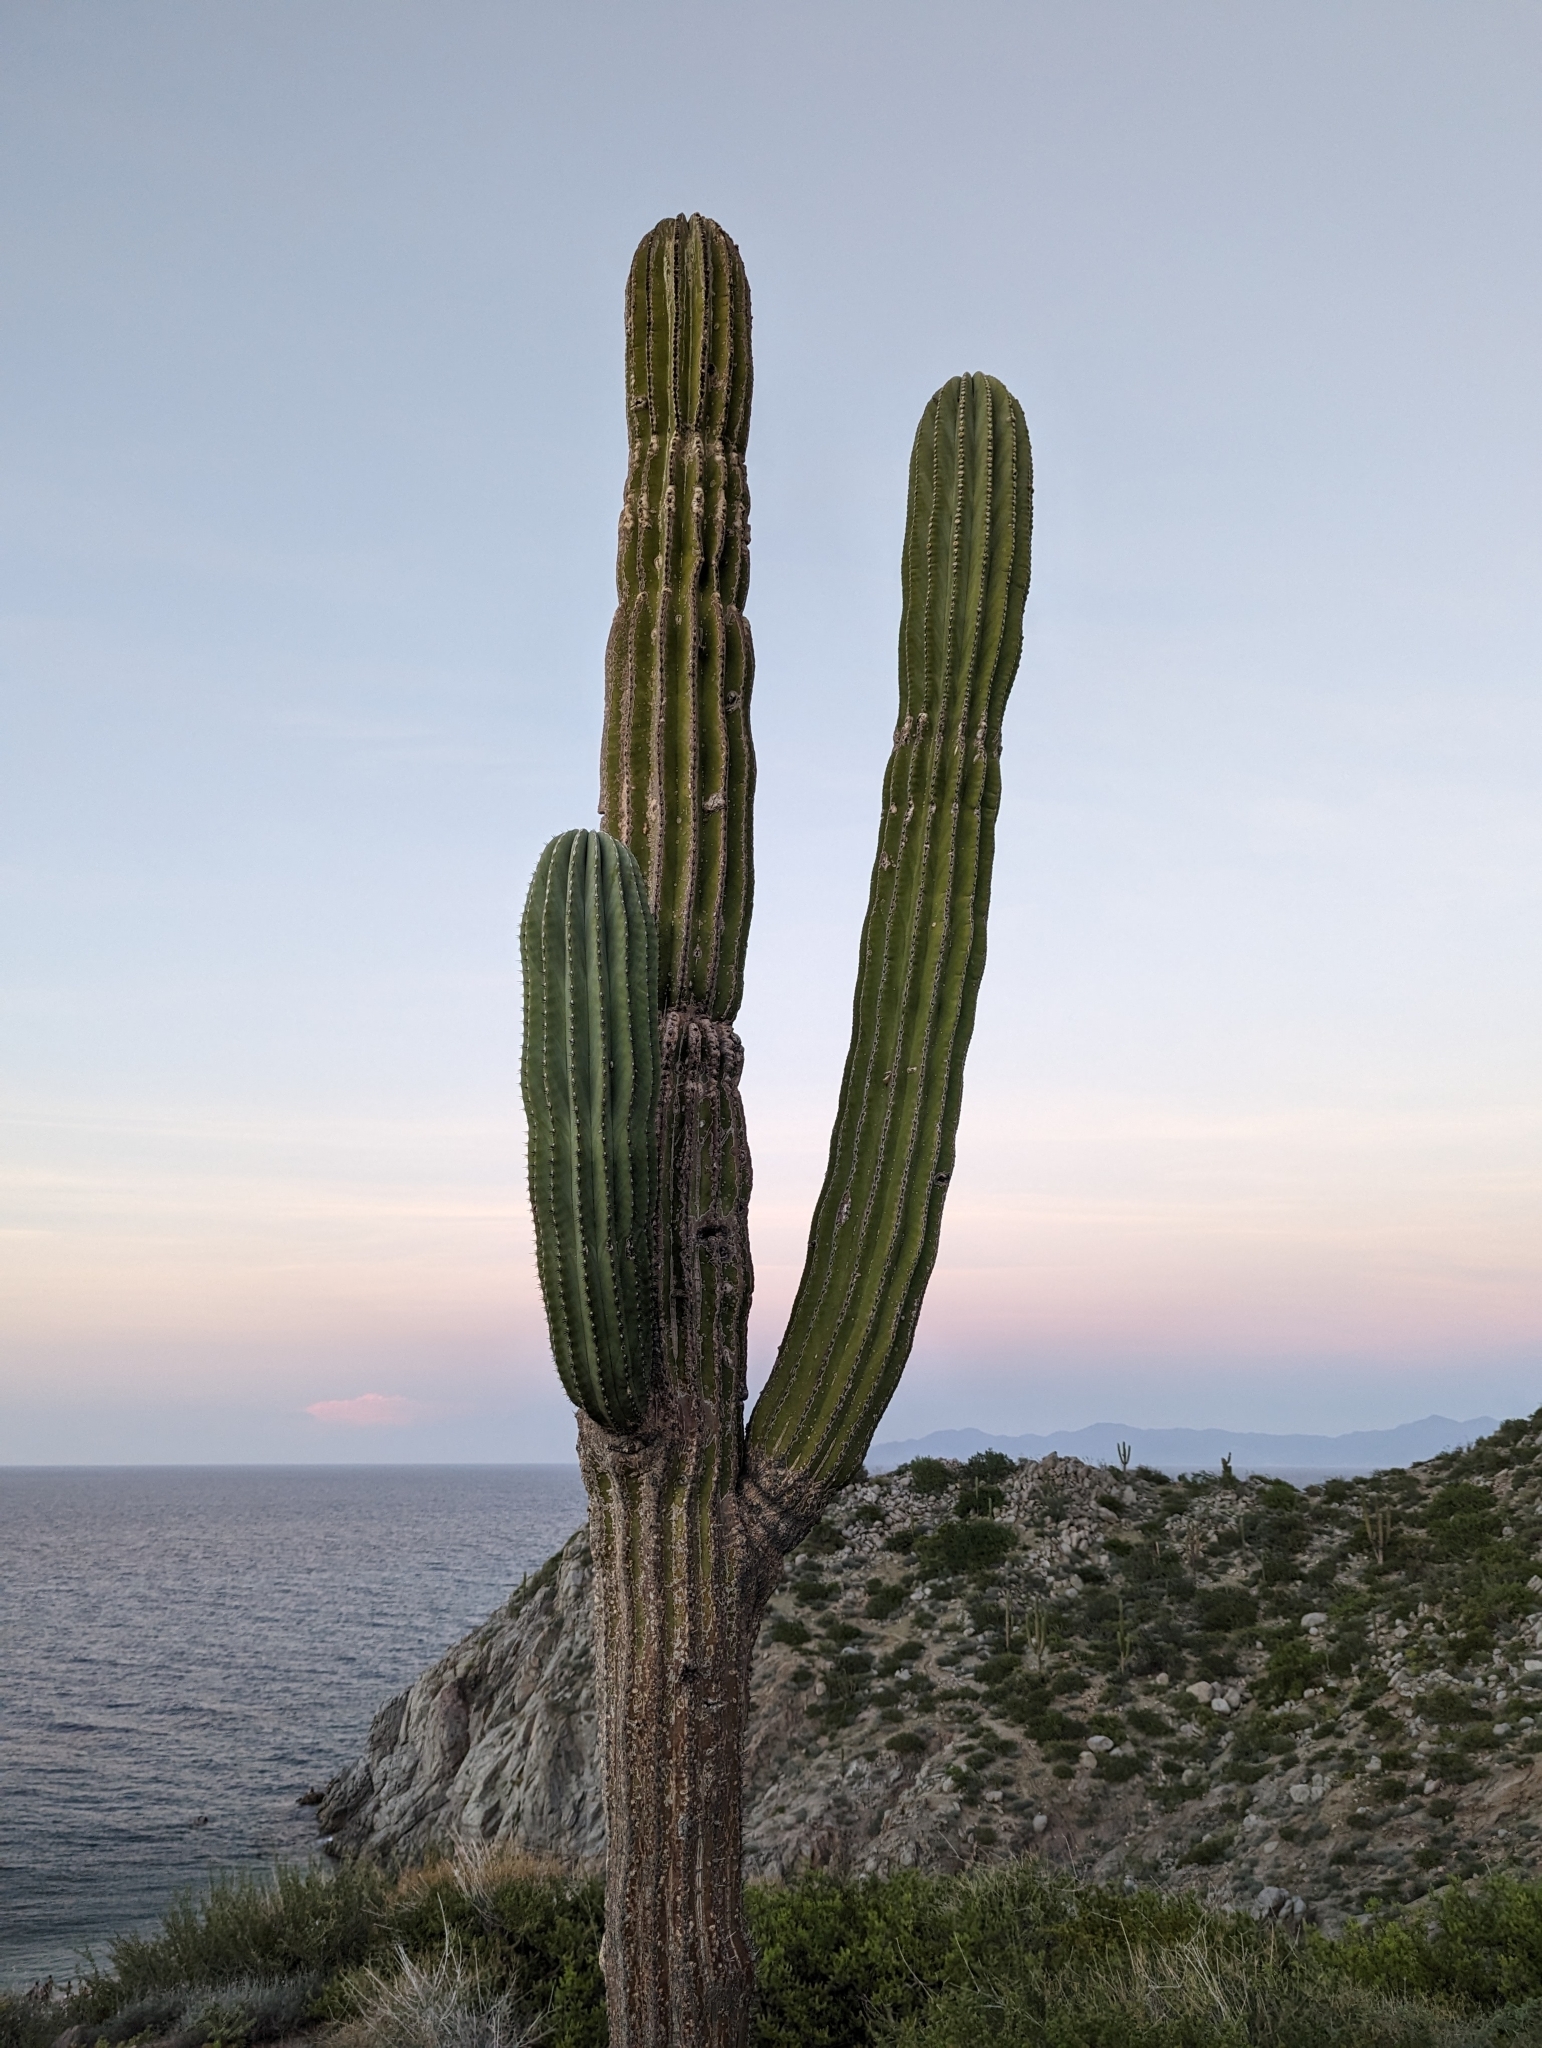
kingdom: Plantae
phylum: Tracheophyta
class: Magnoliopsida
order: Caryophyllales
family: Cactaceae
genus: Pachycereus
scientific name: Pachycereus pringlei
